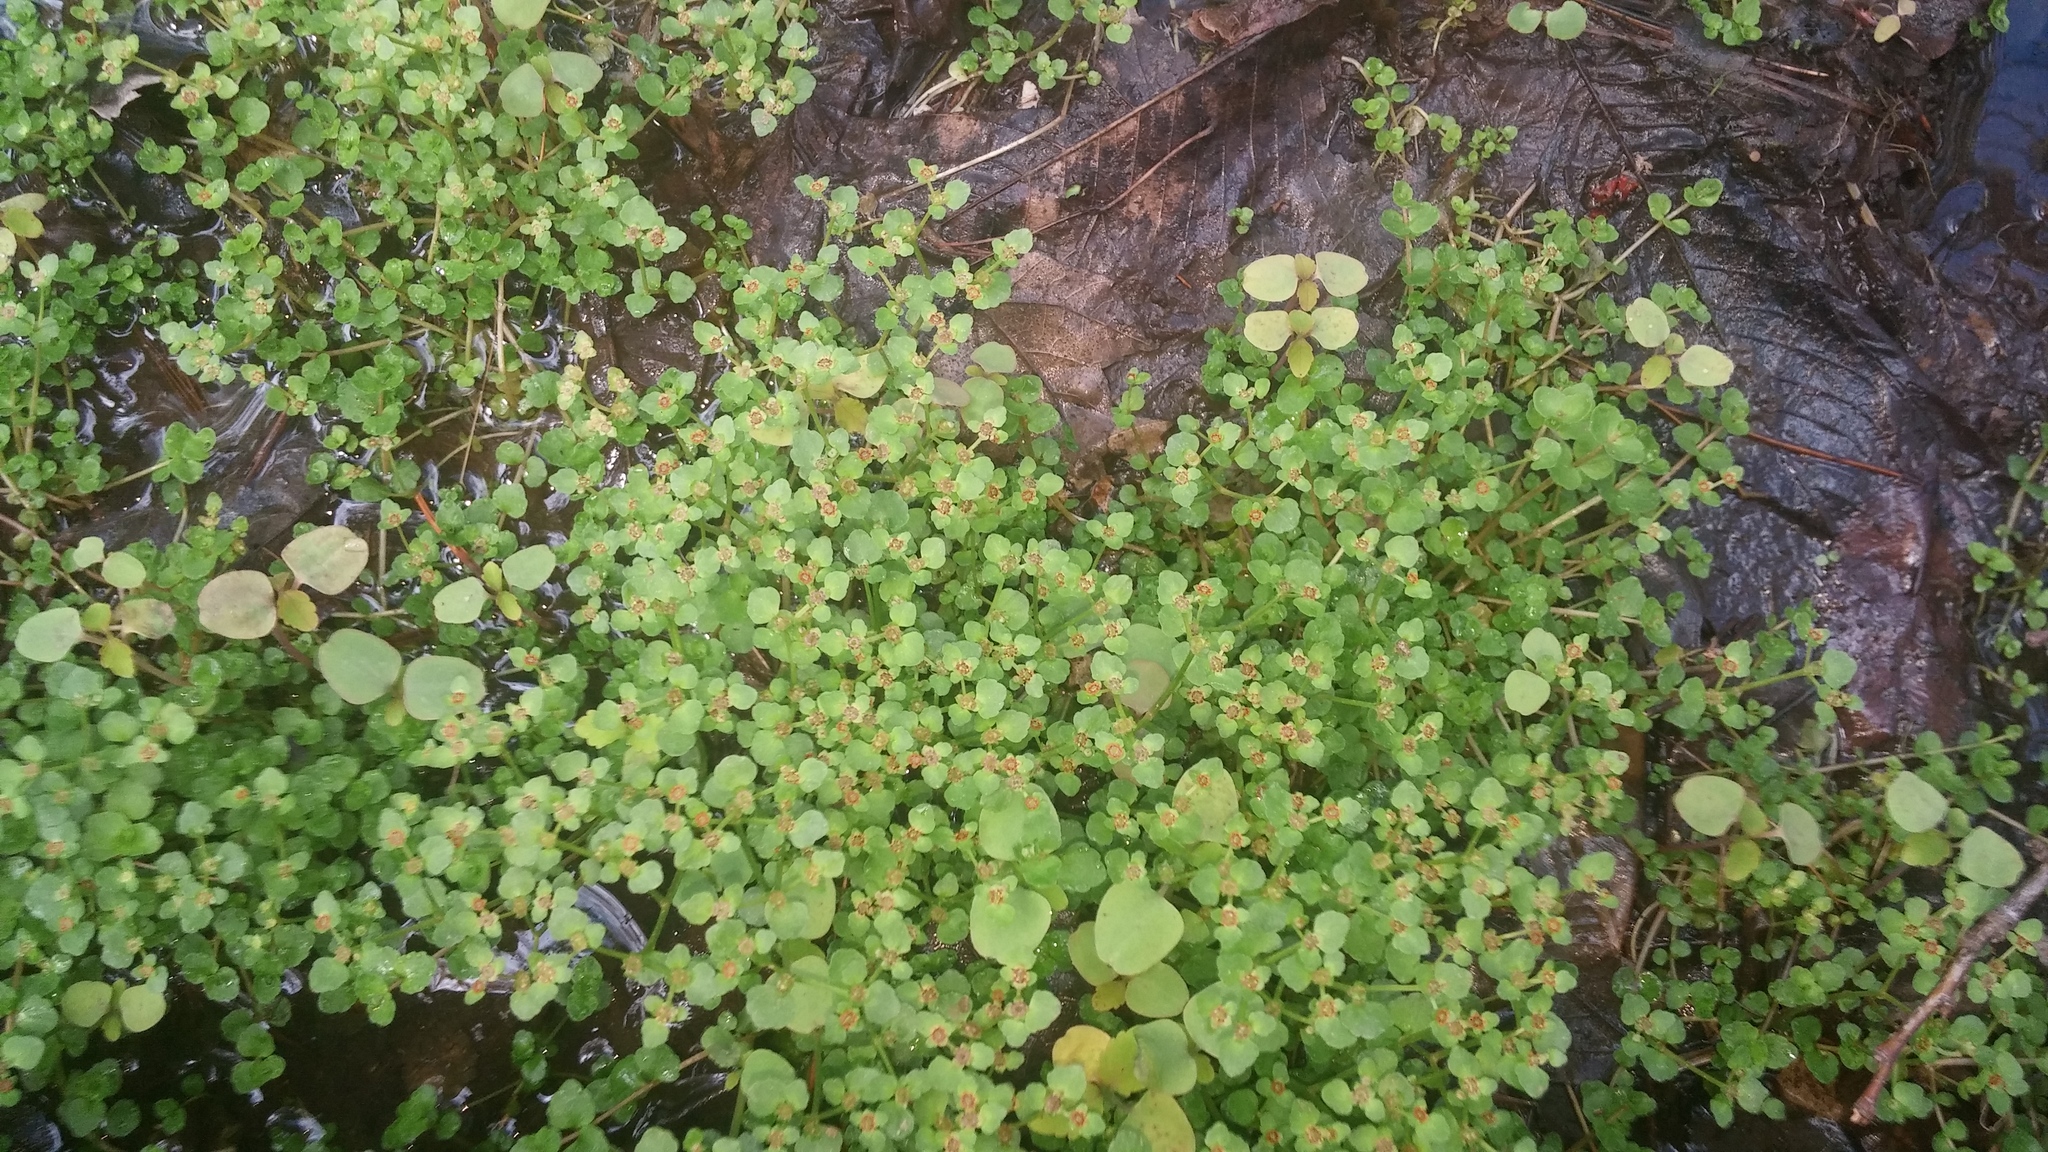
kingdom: Plantae
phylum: Tracheophyta
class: Magnoliopsida
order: Saxifragales
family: Saxifragaceae
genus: Chrysosplenium
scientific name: Chrysosplenium americanum
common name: American golden-saxifrage
